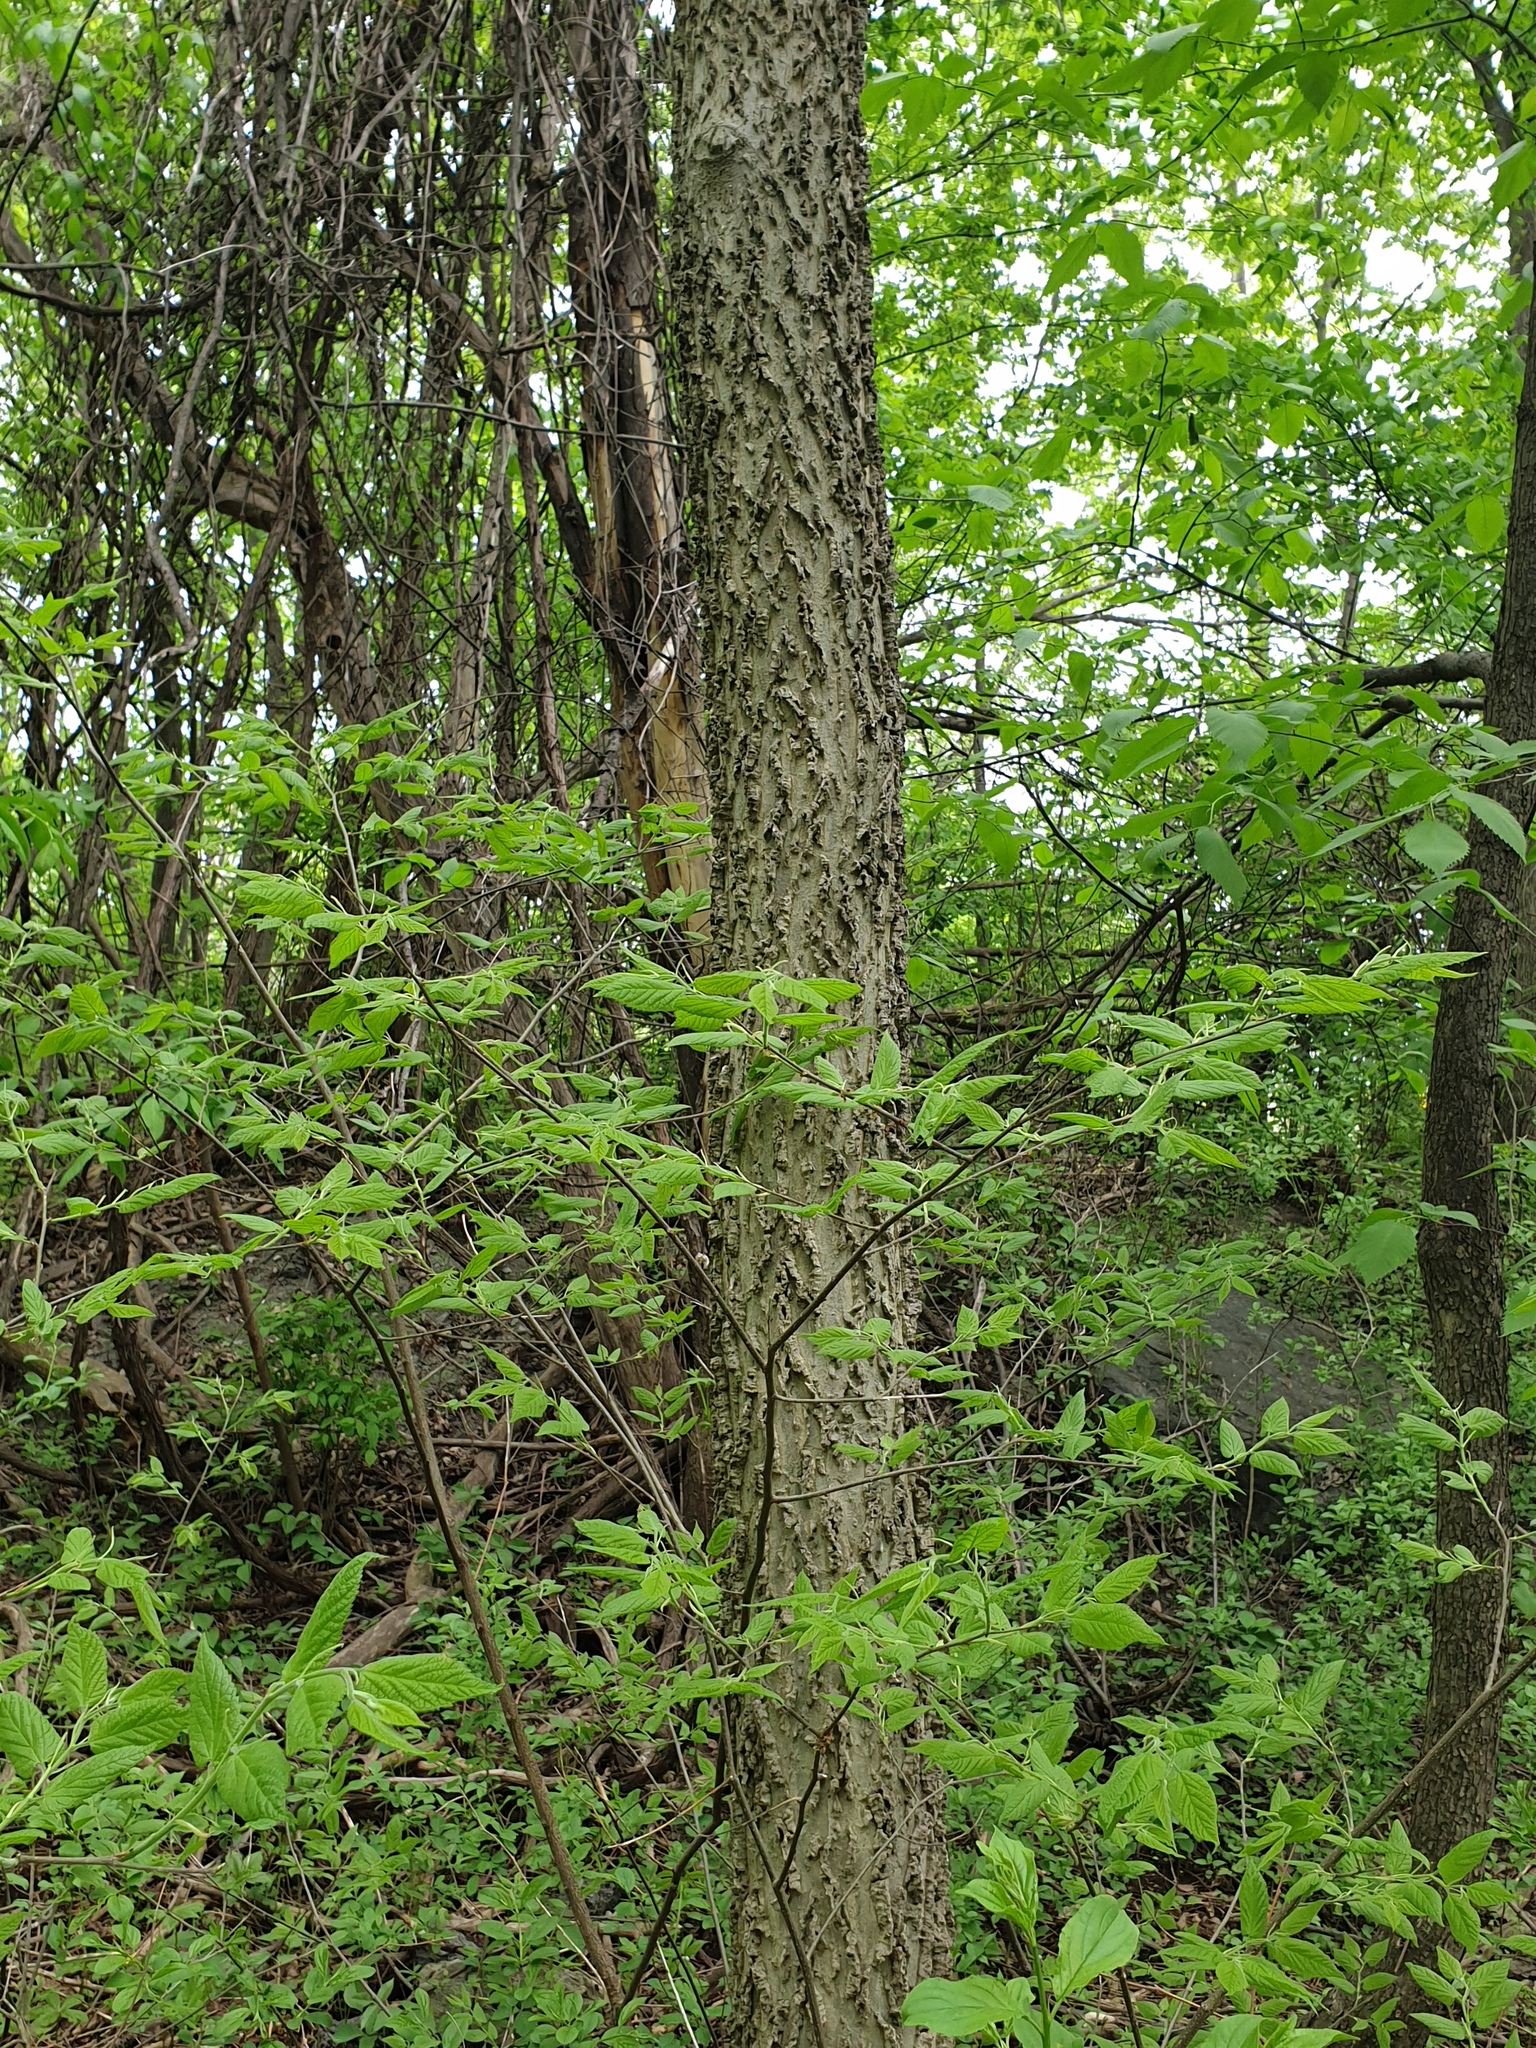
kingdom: Plantae
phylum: Tracheophyta
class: Magnoliopsida
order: Rosales
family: Cannabaceae
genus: Celtis
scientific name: Celtis occidentalis
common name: Common hackberry
